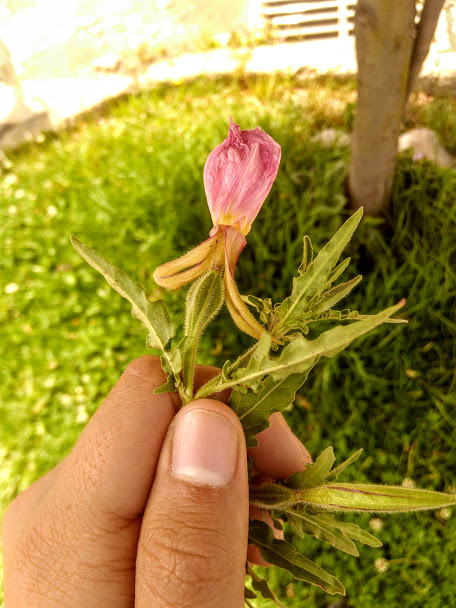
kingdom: Plantae
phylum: Tracheophyta
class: Magnoliopsida
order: Myrtales
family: Onagraceae
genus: Oenothera
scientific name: Oenothera tetraptera
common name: Four-wing evening-primrose
